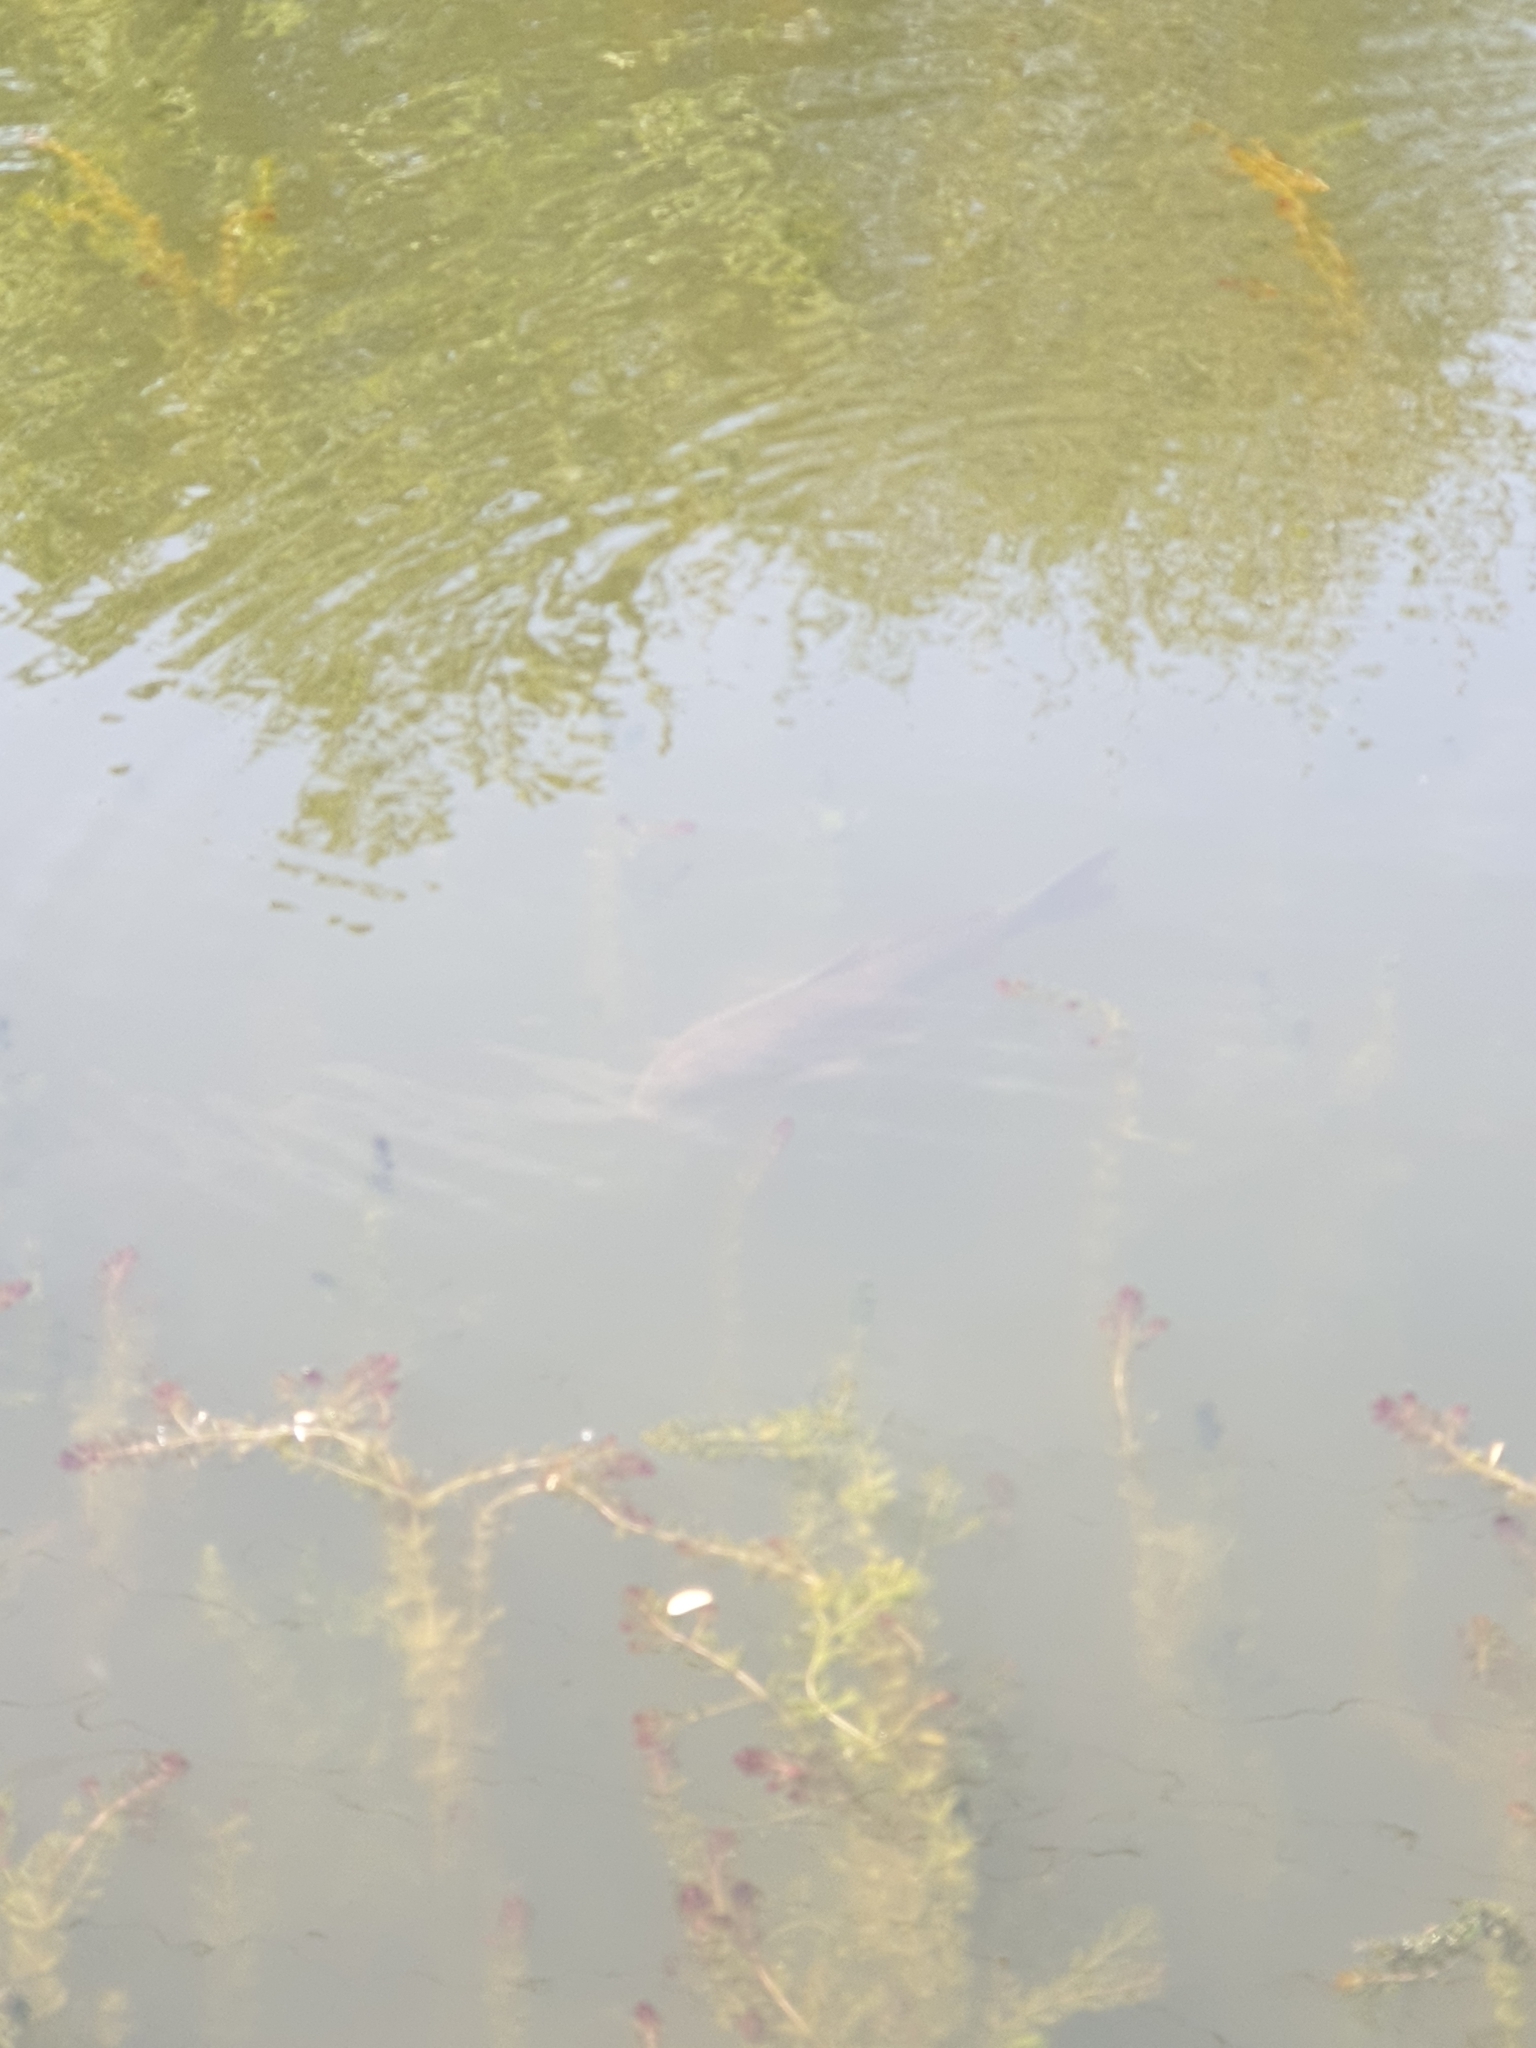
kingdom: Animalia
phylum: Chordata
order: Cypriniformes
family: Cyprinidae
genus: Cyprinus
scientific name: Cyprinus carpio
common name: Common carp
